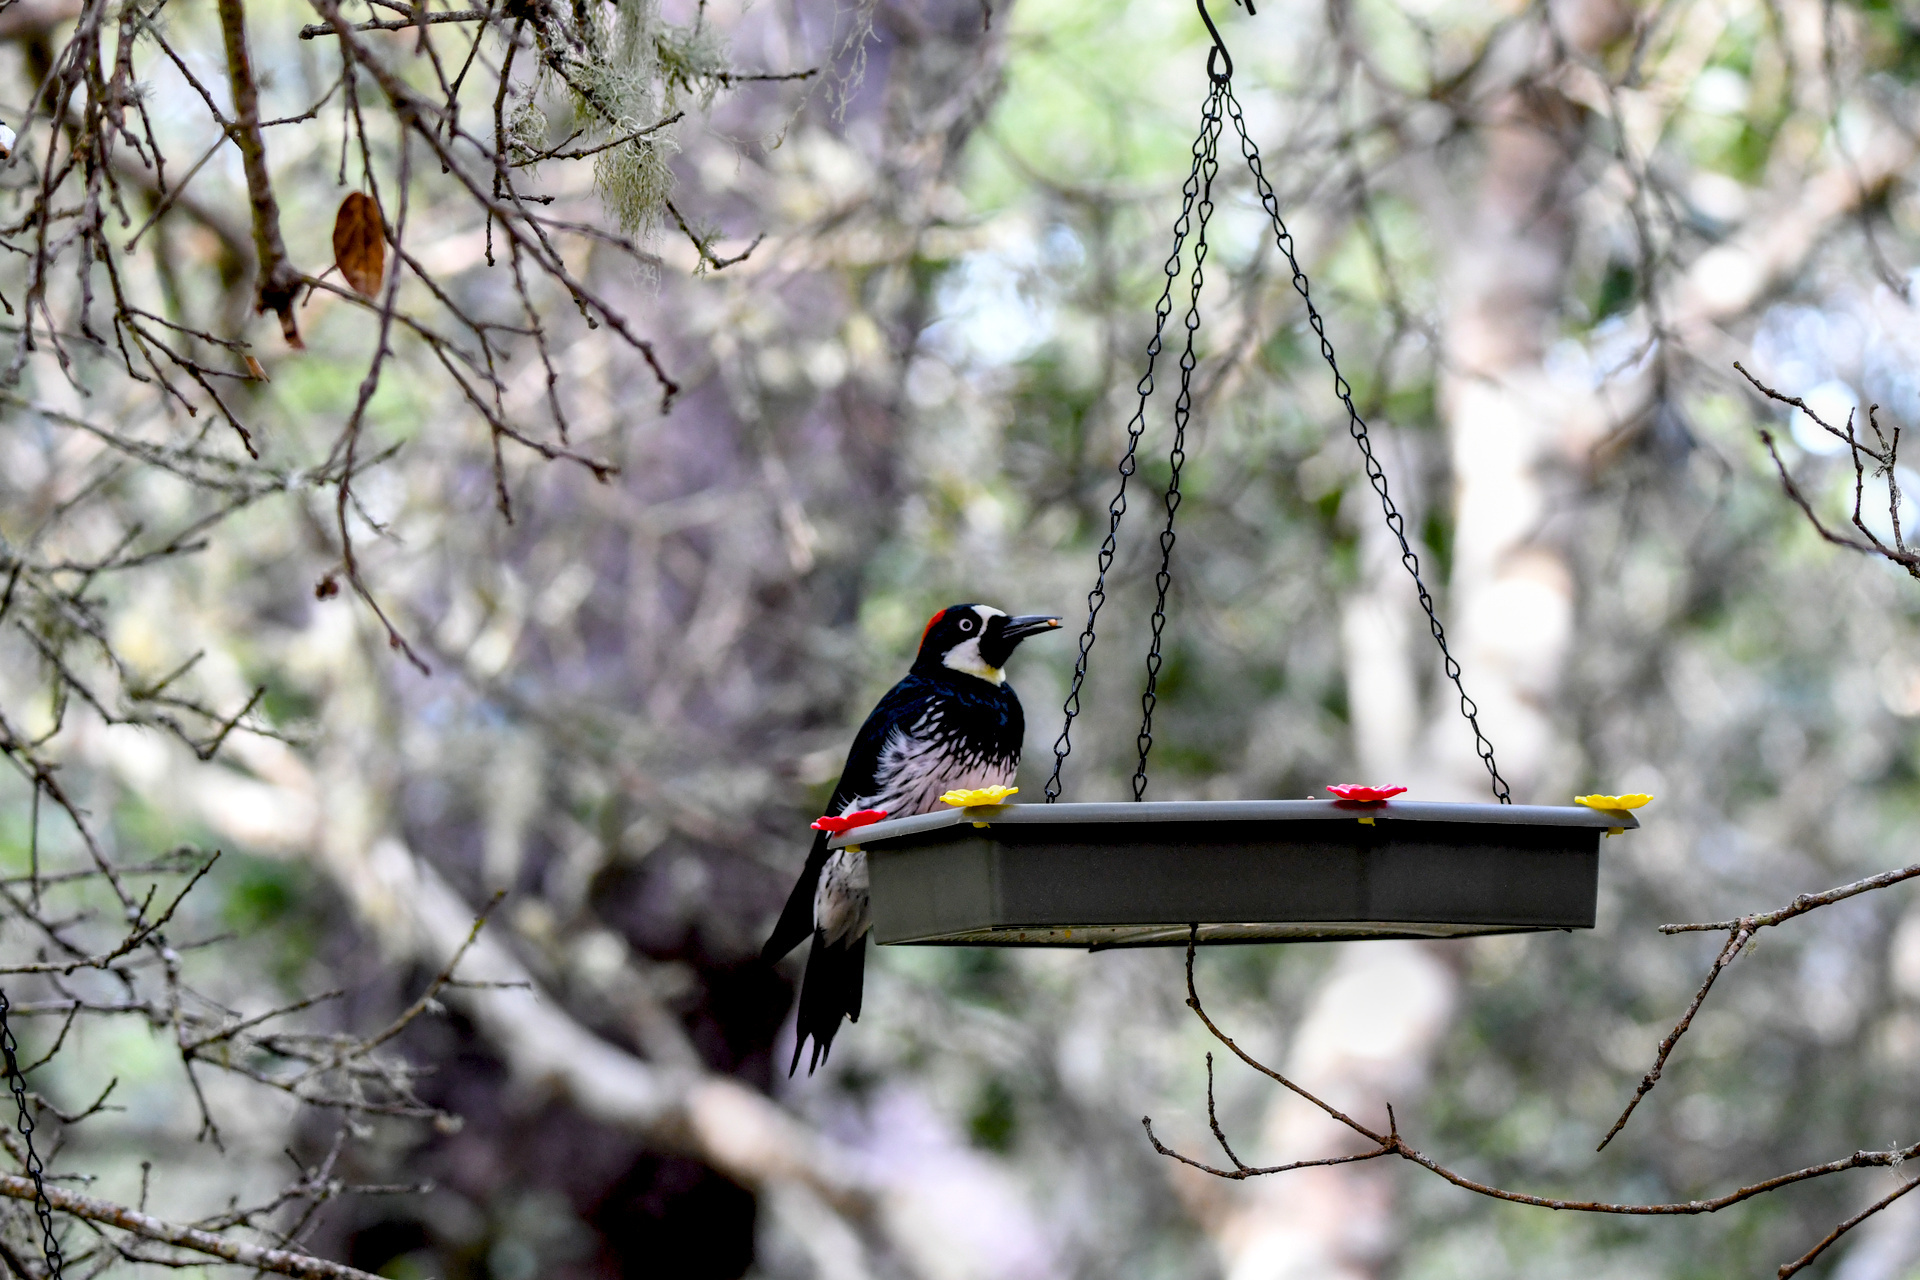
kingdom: Animalia
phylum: Chordata
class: Aves
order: Piciformes
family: Picidae
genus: Melanerpes
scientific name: Melanerpes formicivorus
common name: Acorn woodpecker
